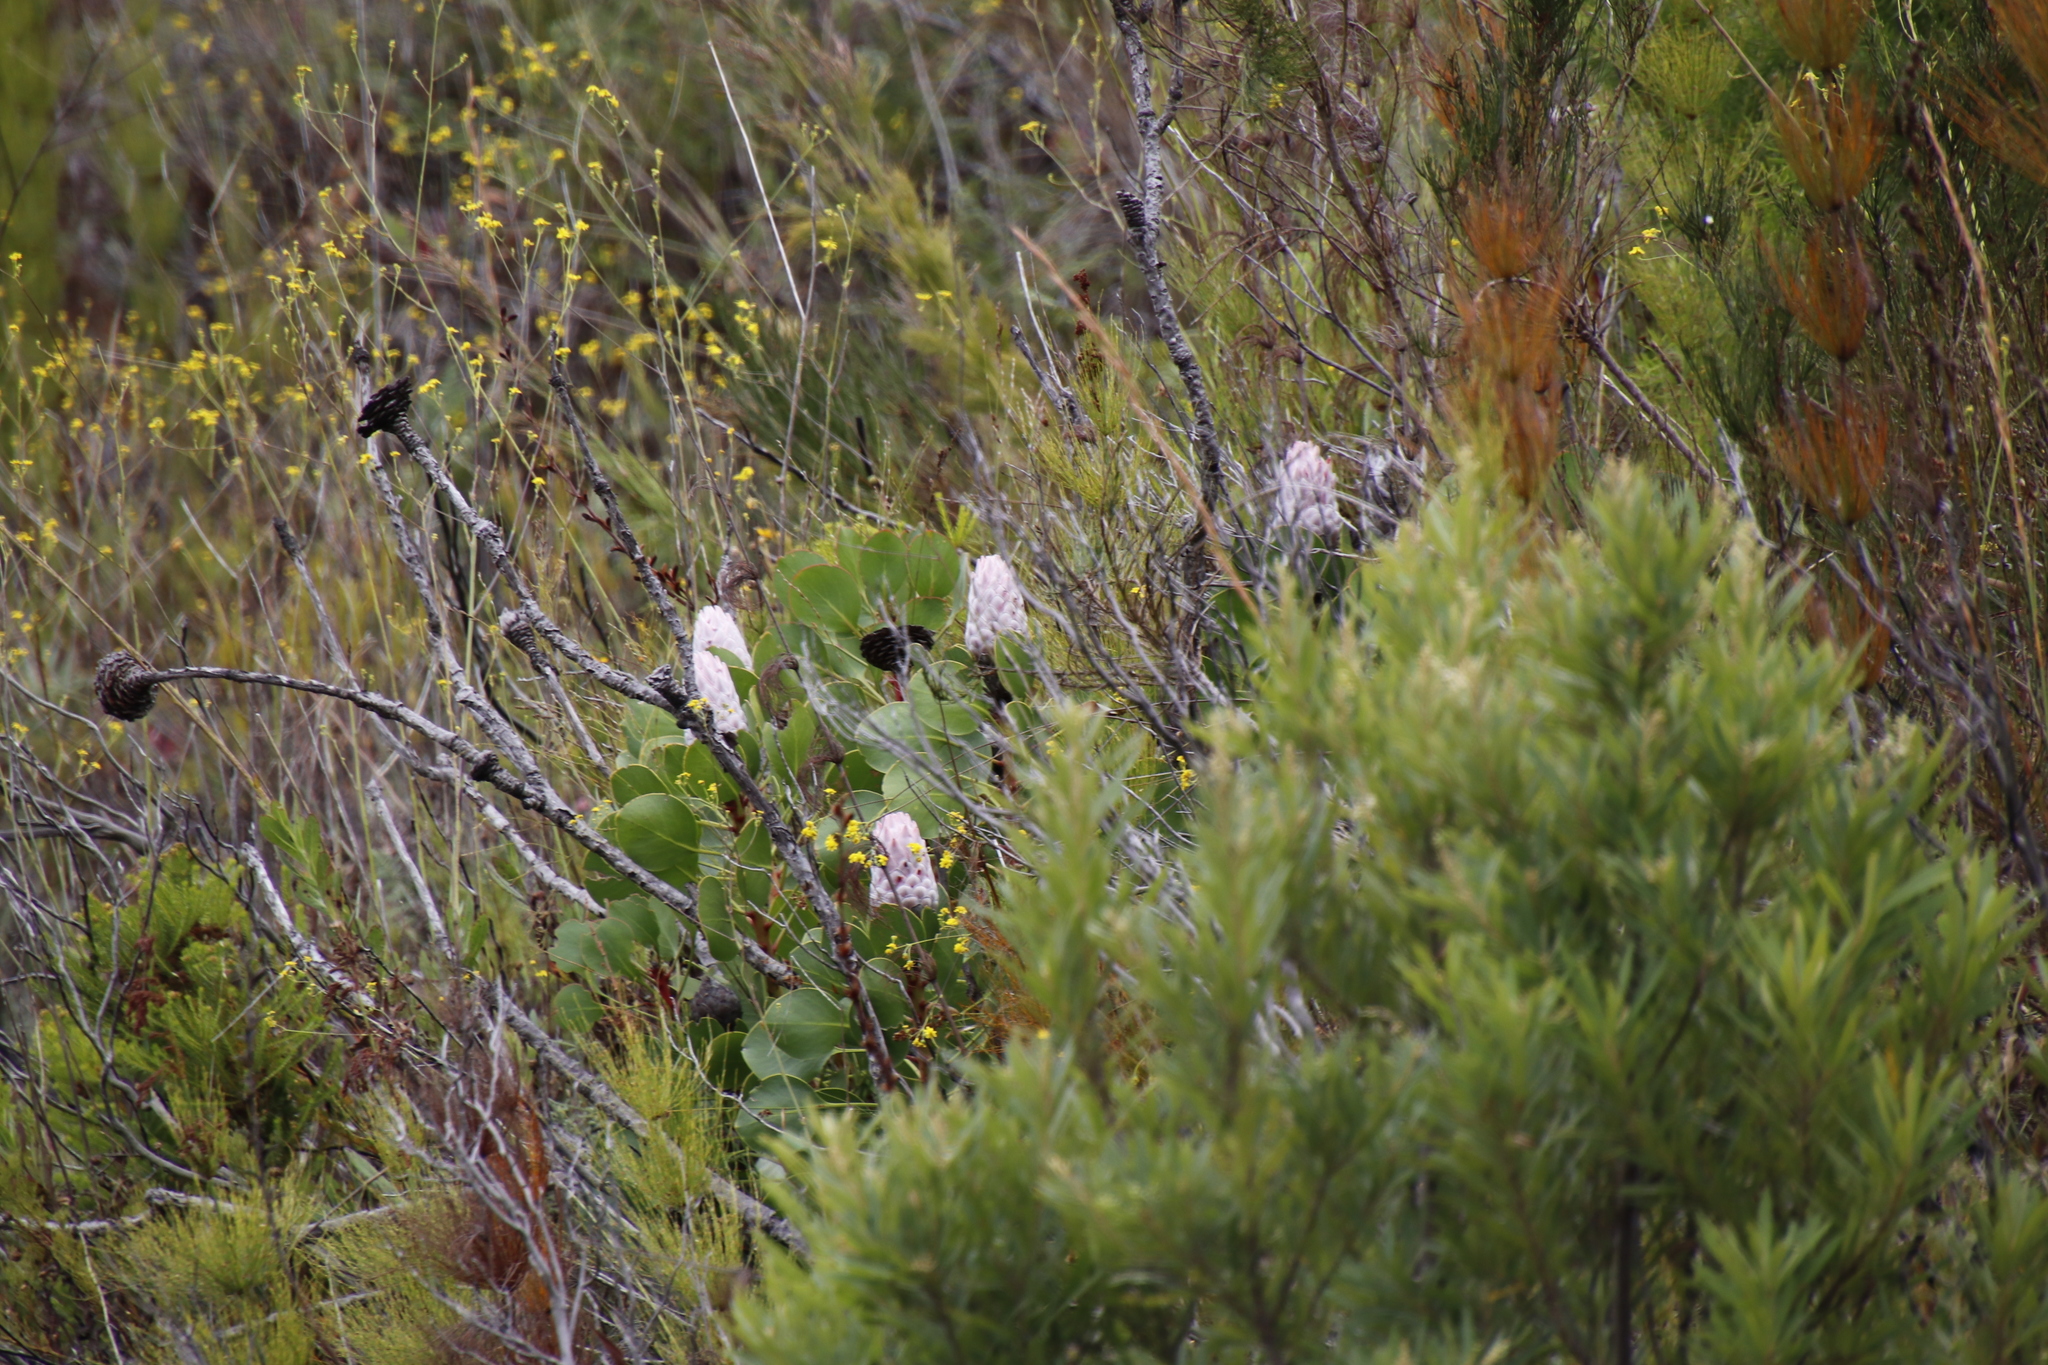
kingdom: Plantae
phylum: Tracheophyta
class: Magnoliopsida
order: Proteales
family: Proteaceae
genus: Protea
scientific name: Protea cynaroides
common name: King protea
